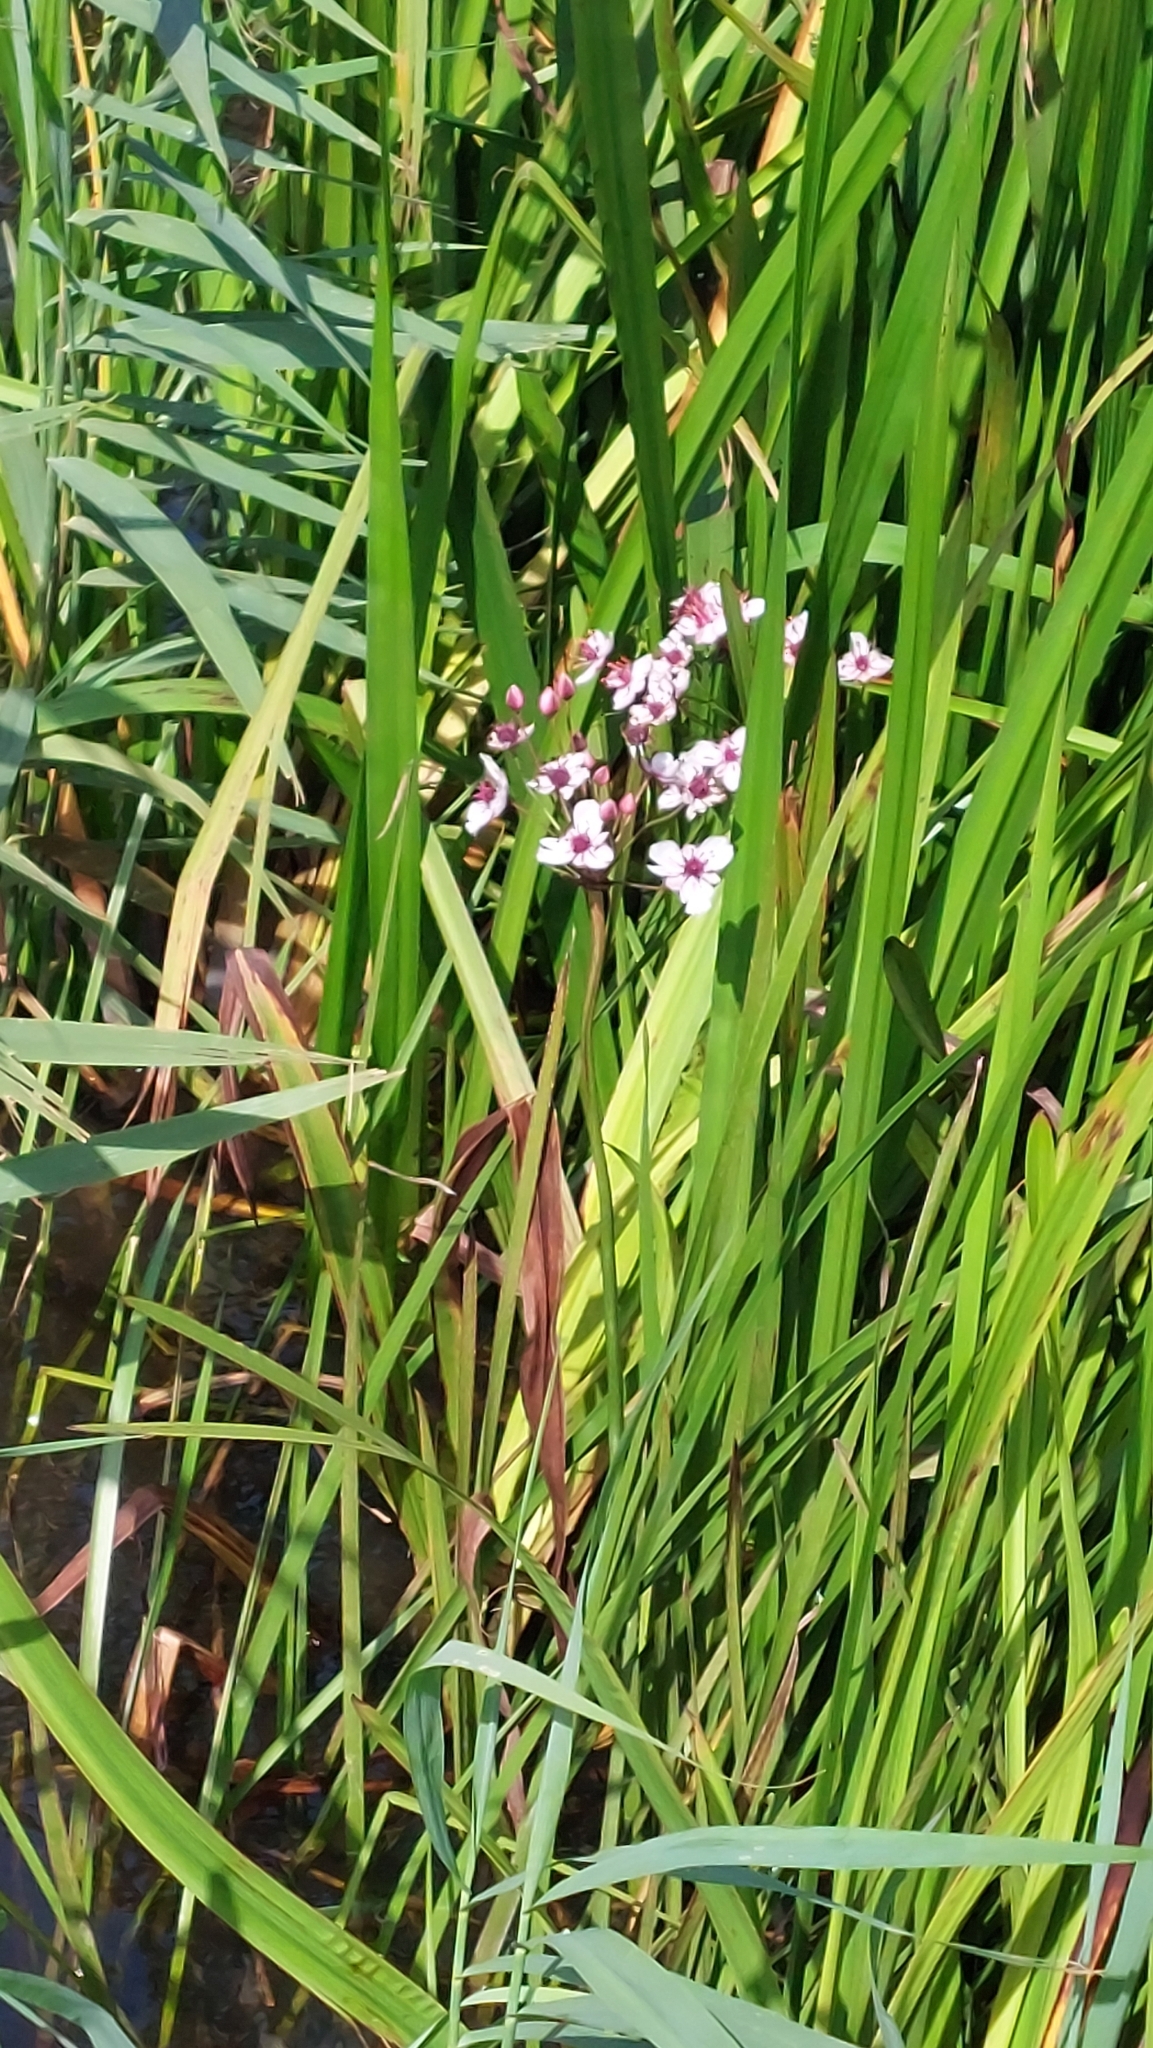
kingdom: Plantae
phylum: Tracheophyta
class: Liliopsida
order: Alismatales
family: Butomaceae
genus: Butomus
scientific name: Butomus umbellatus
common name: Flowering-rush
